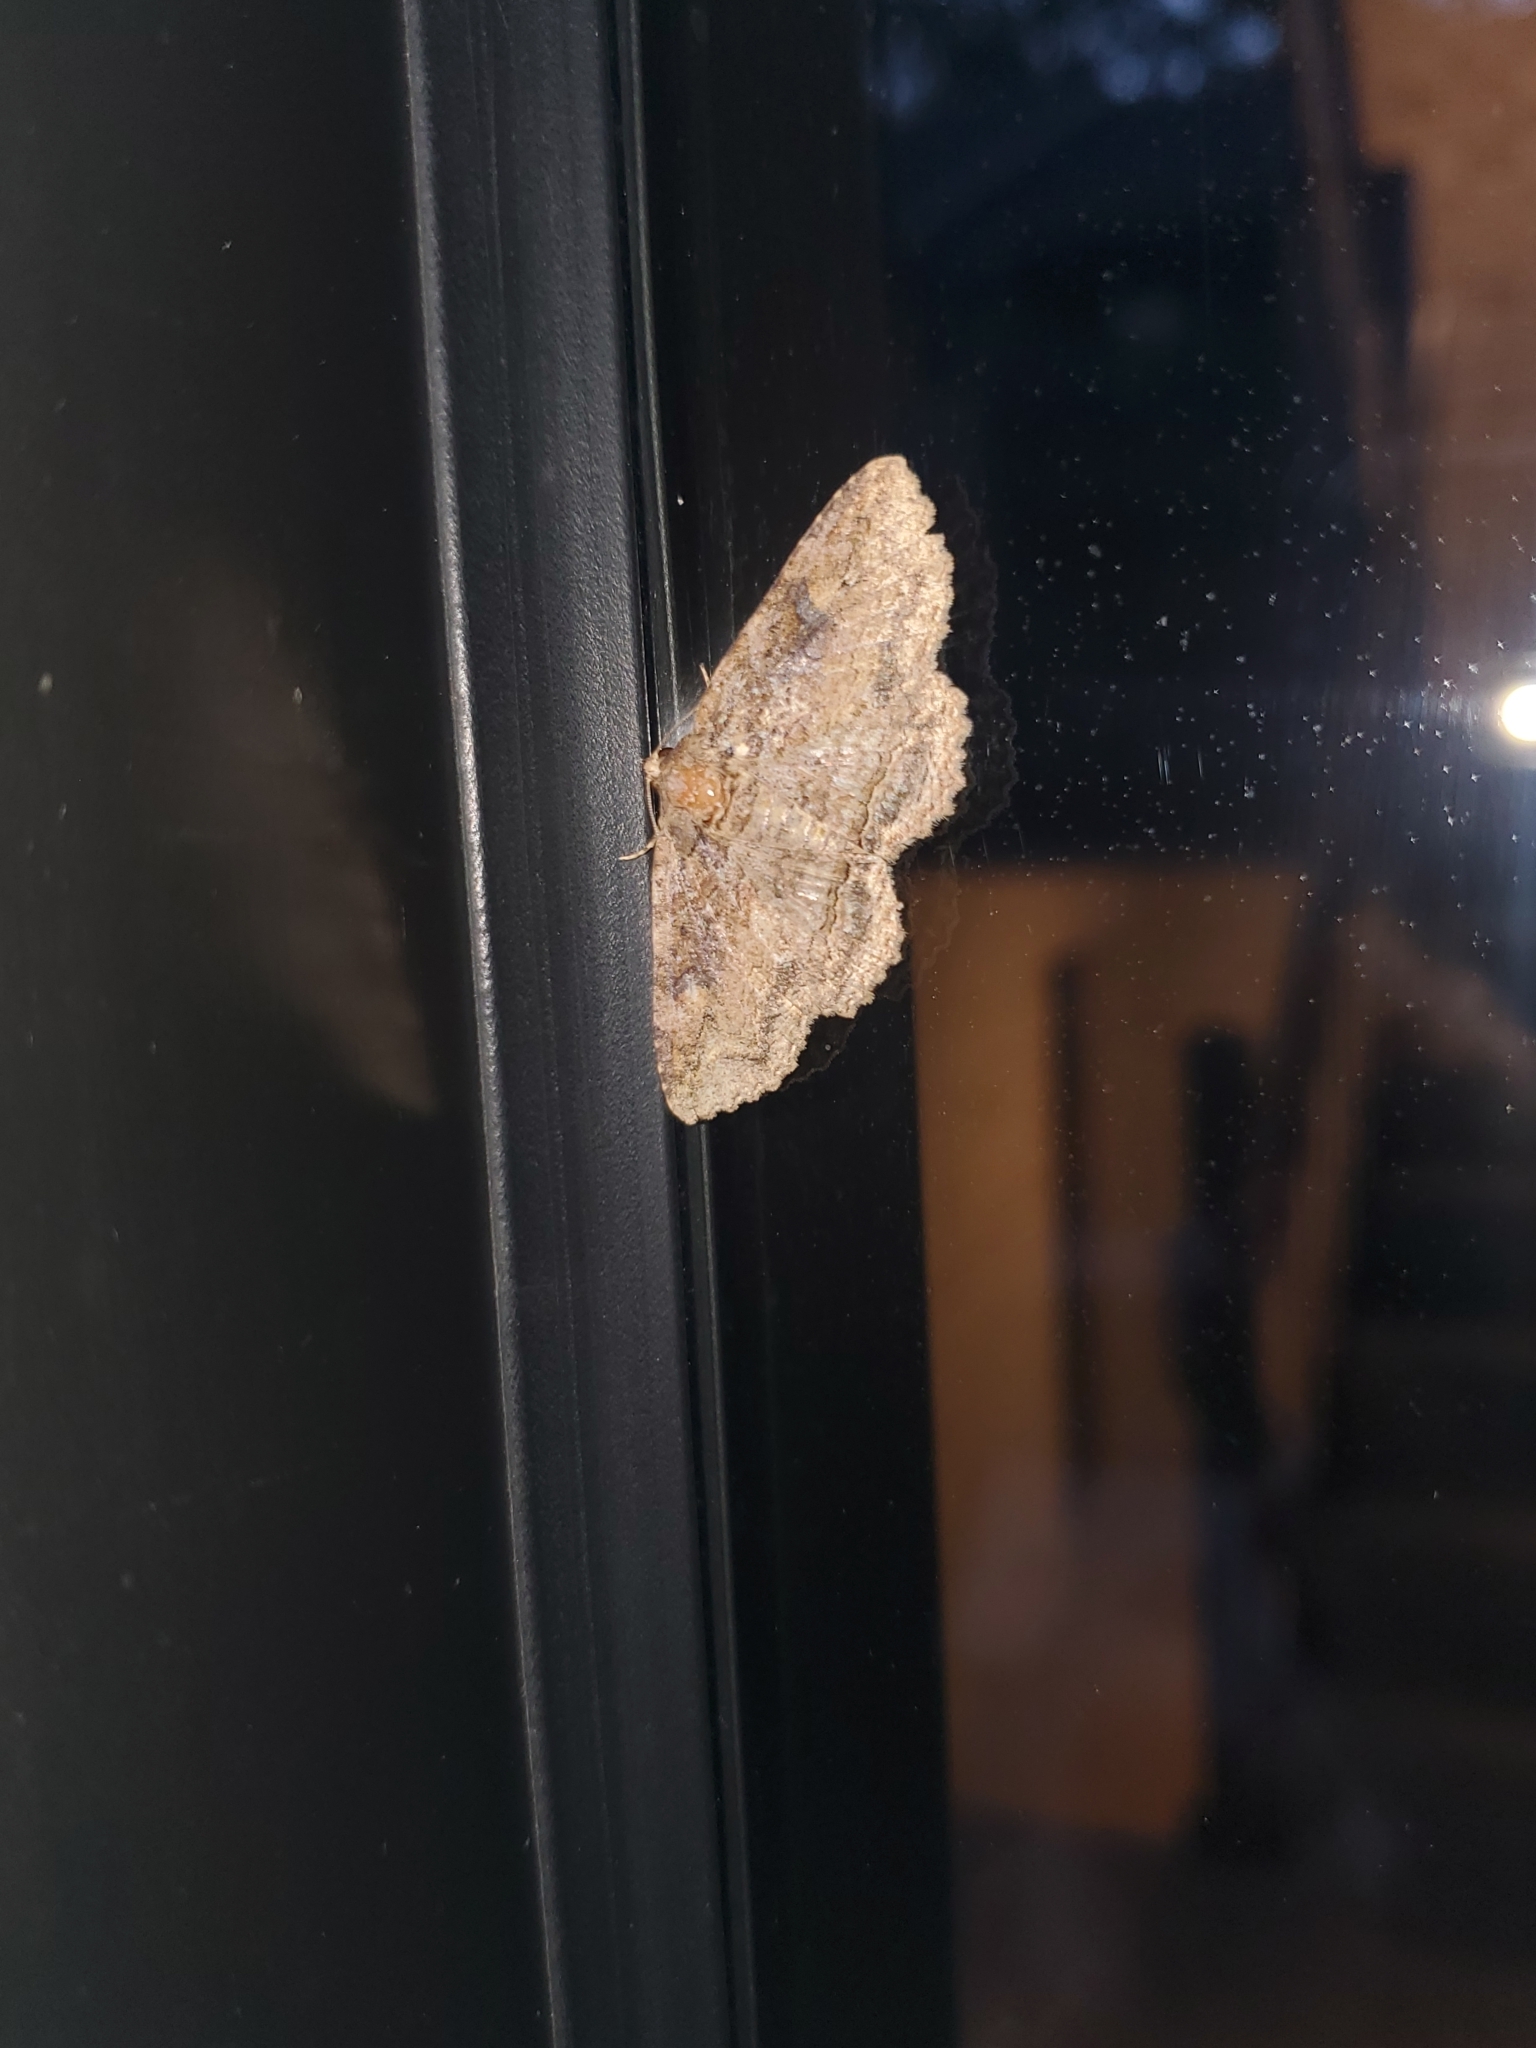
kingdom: Animalia
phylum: Arthropoda
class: Insecta
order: Lepidoptera
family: Erebidae
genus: Zale
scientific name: Zale galbanata
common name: Maple zale
